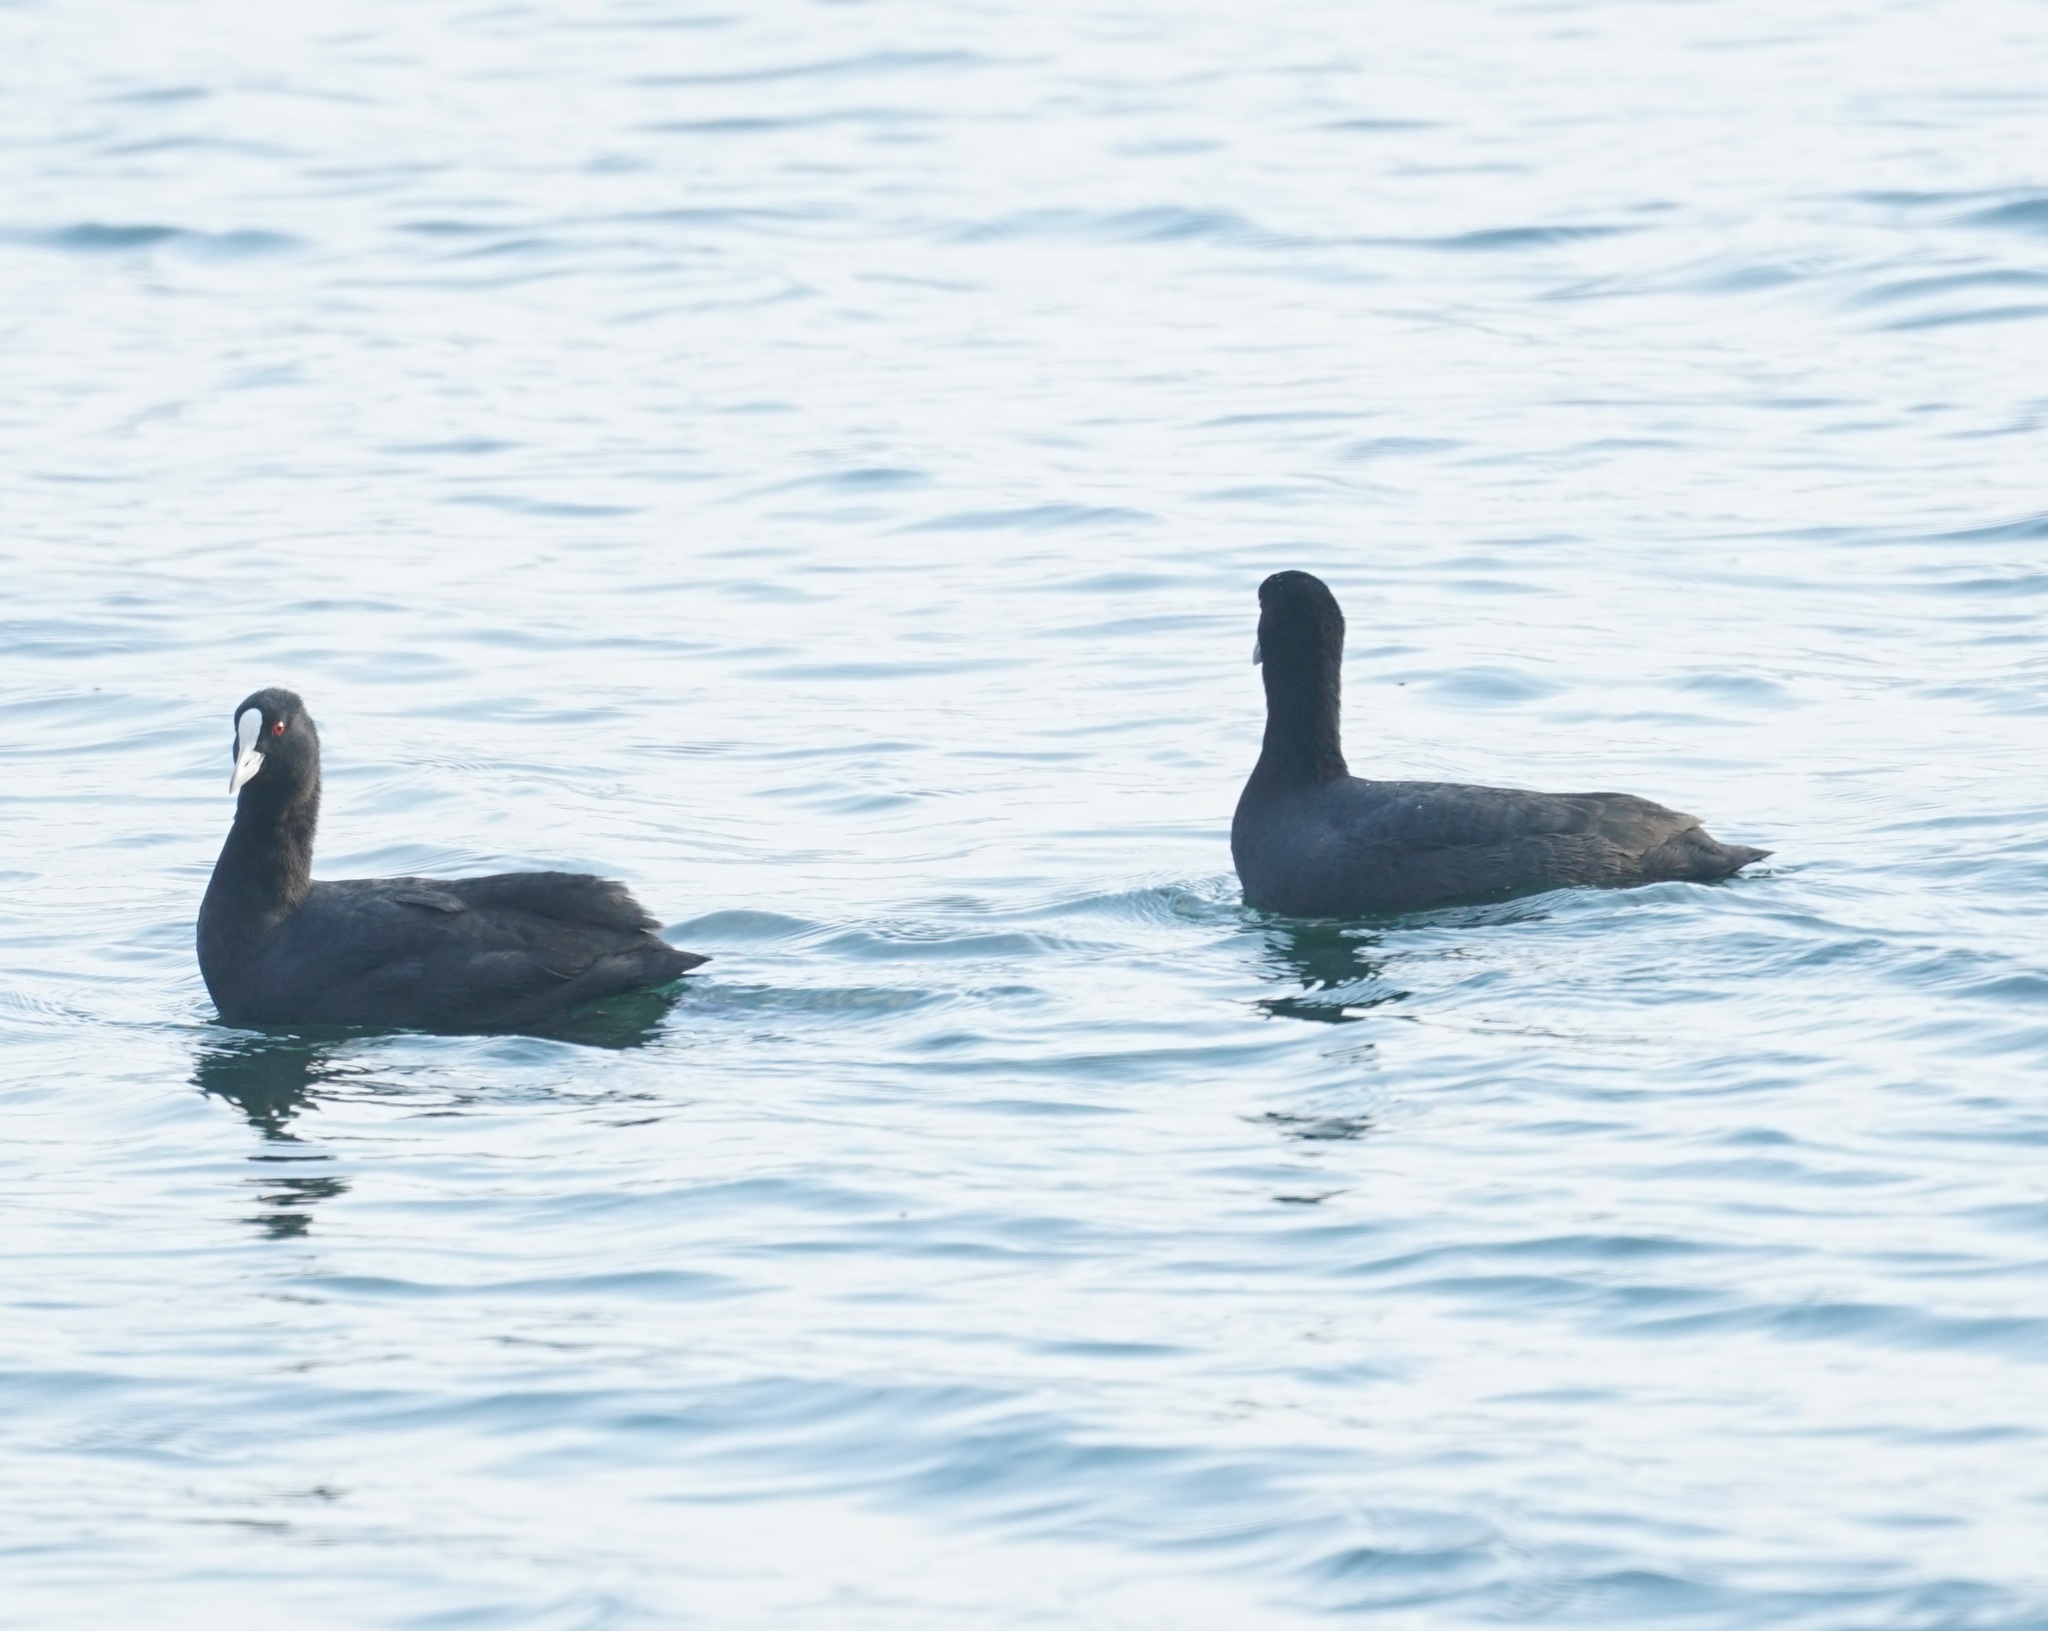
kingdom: Animalia
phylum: Chordata
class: Aves
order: Gruiformes
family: Rallidae
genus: Fulica
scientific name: Fulica atra
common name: Eurasian coot
